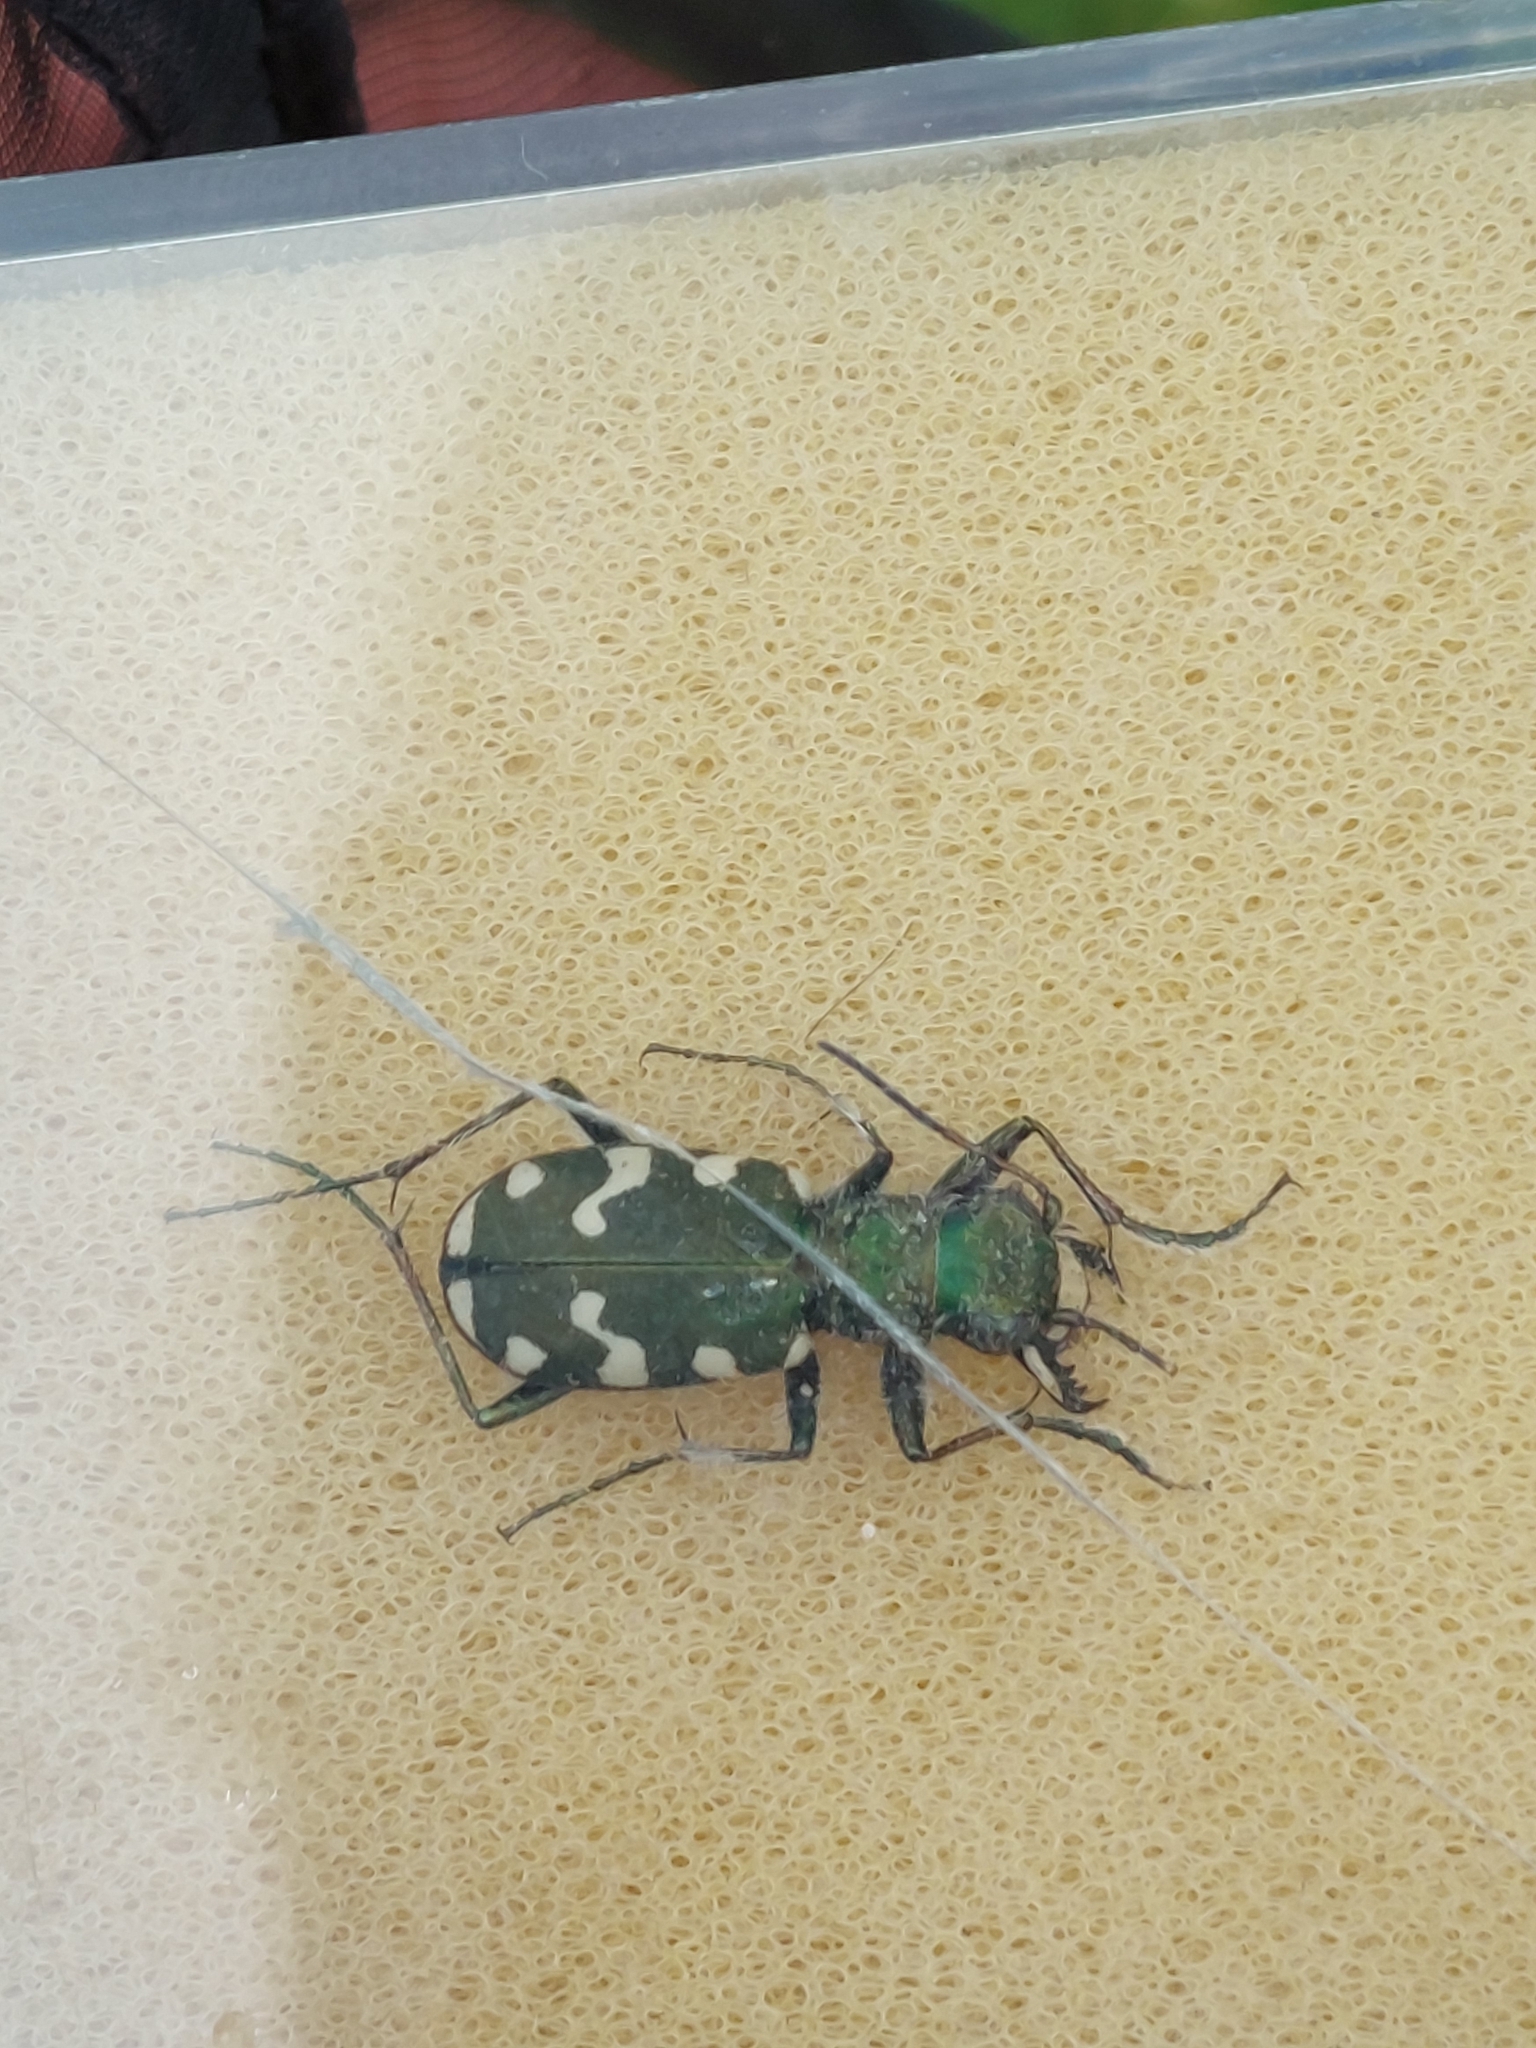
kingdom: Animalia
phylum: Arthropoda
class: Insecta
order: Coleoptera
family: Carabidae
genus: Cicindela
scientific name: Cicindela gallica
